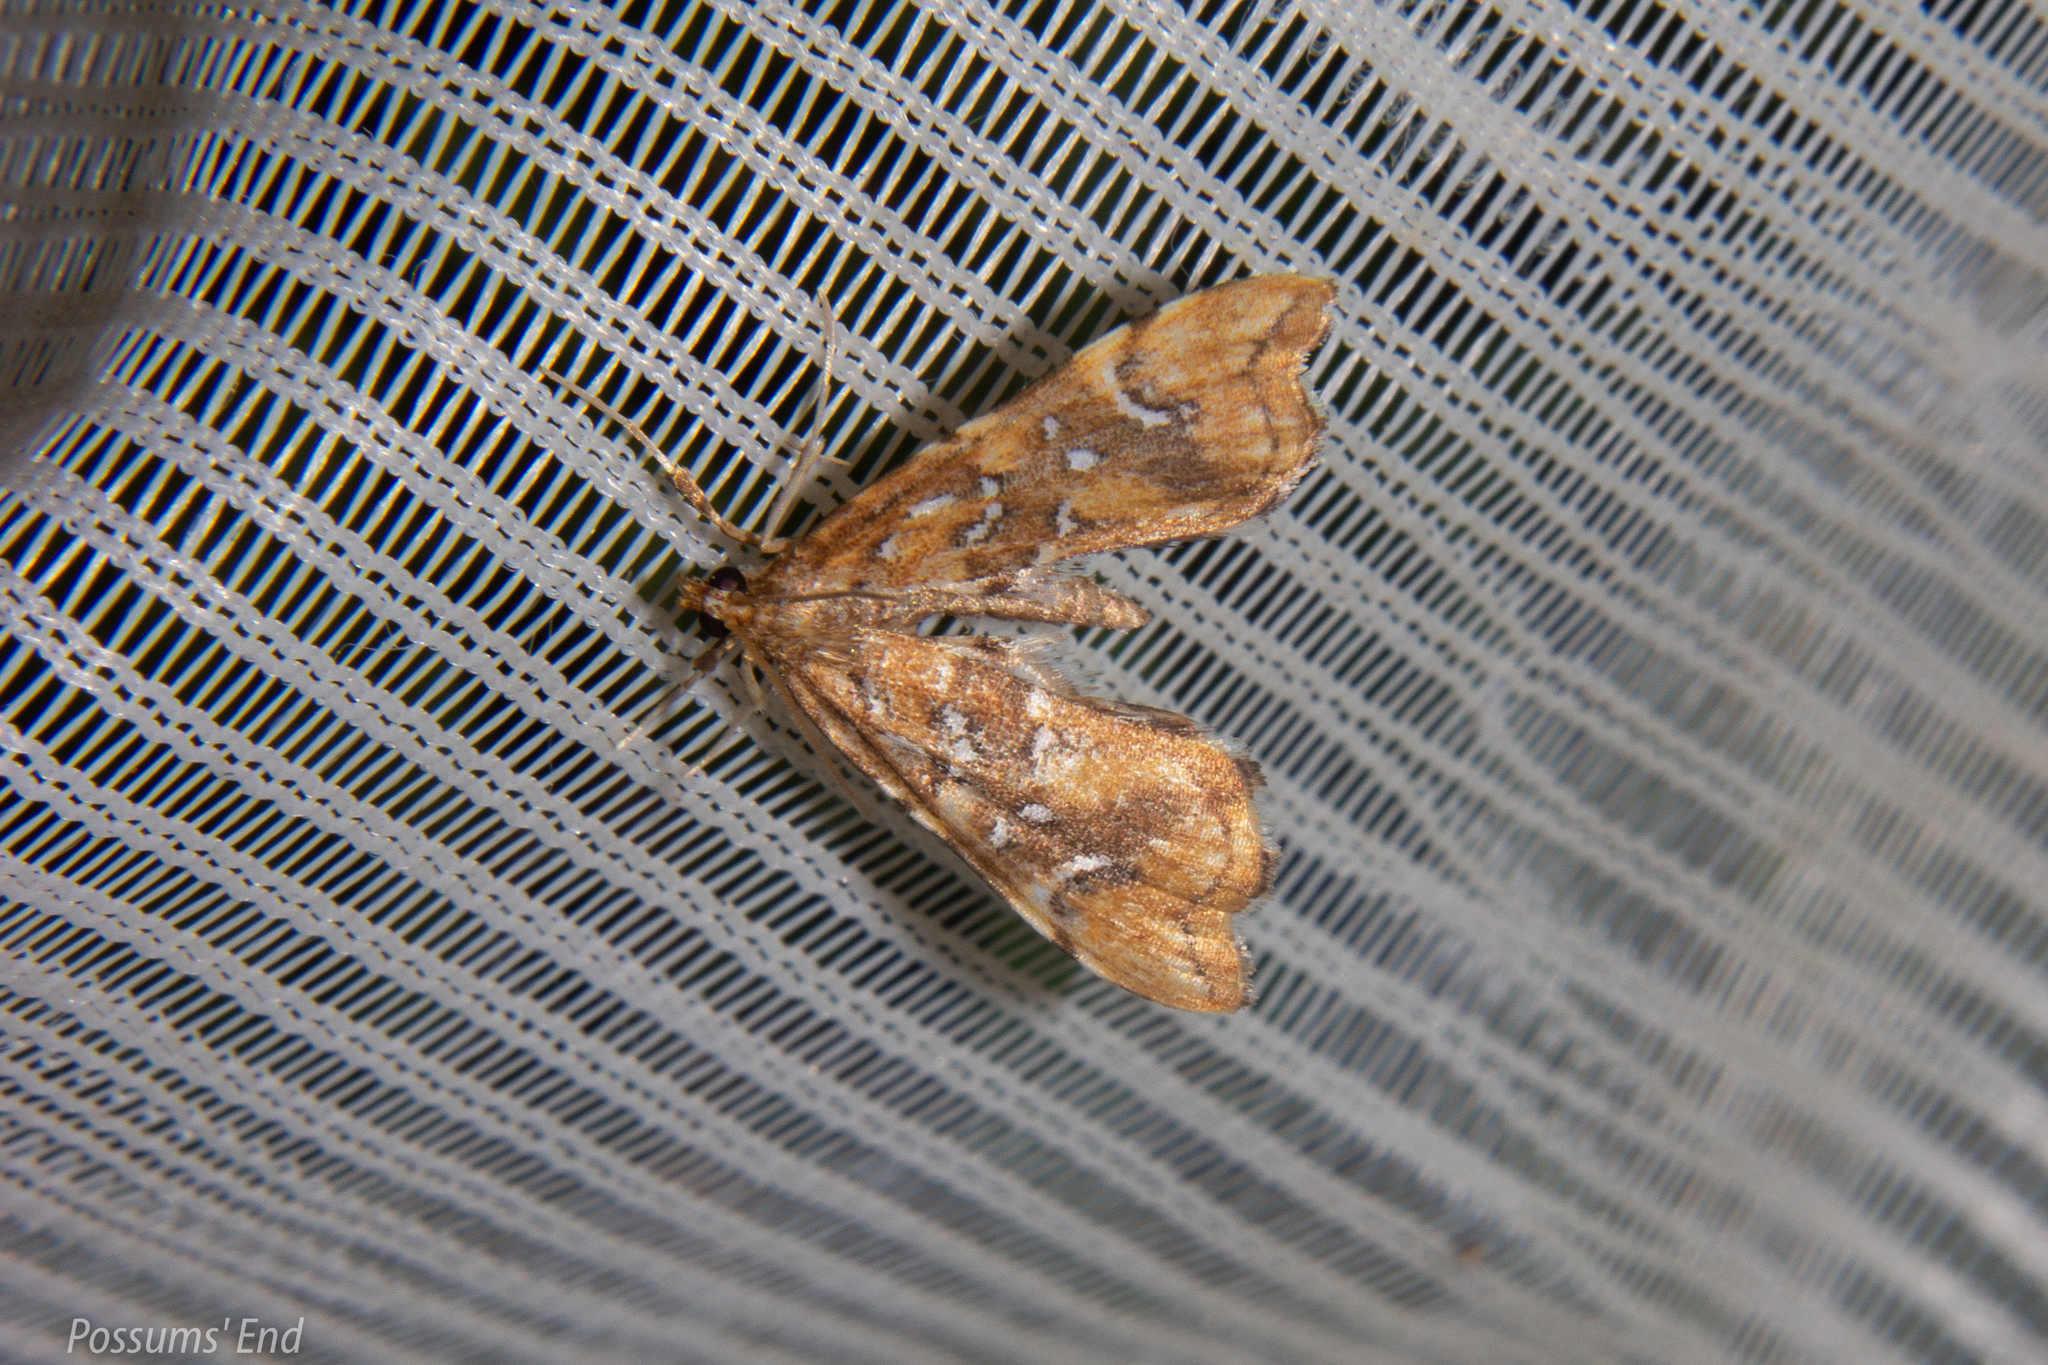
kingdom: Animalia
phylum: Arthropoda
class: Insecta
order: Lepidoptera
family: Pyralidae
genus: Musotima
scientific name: Musotima nitidalis
